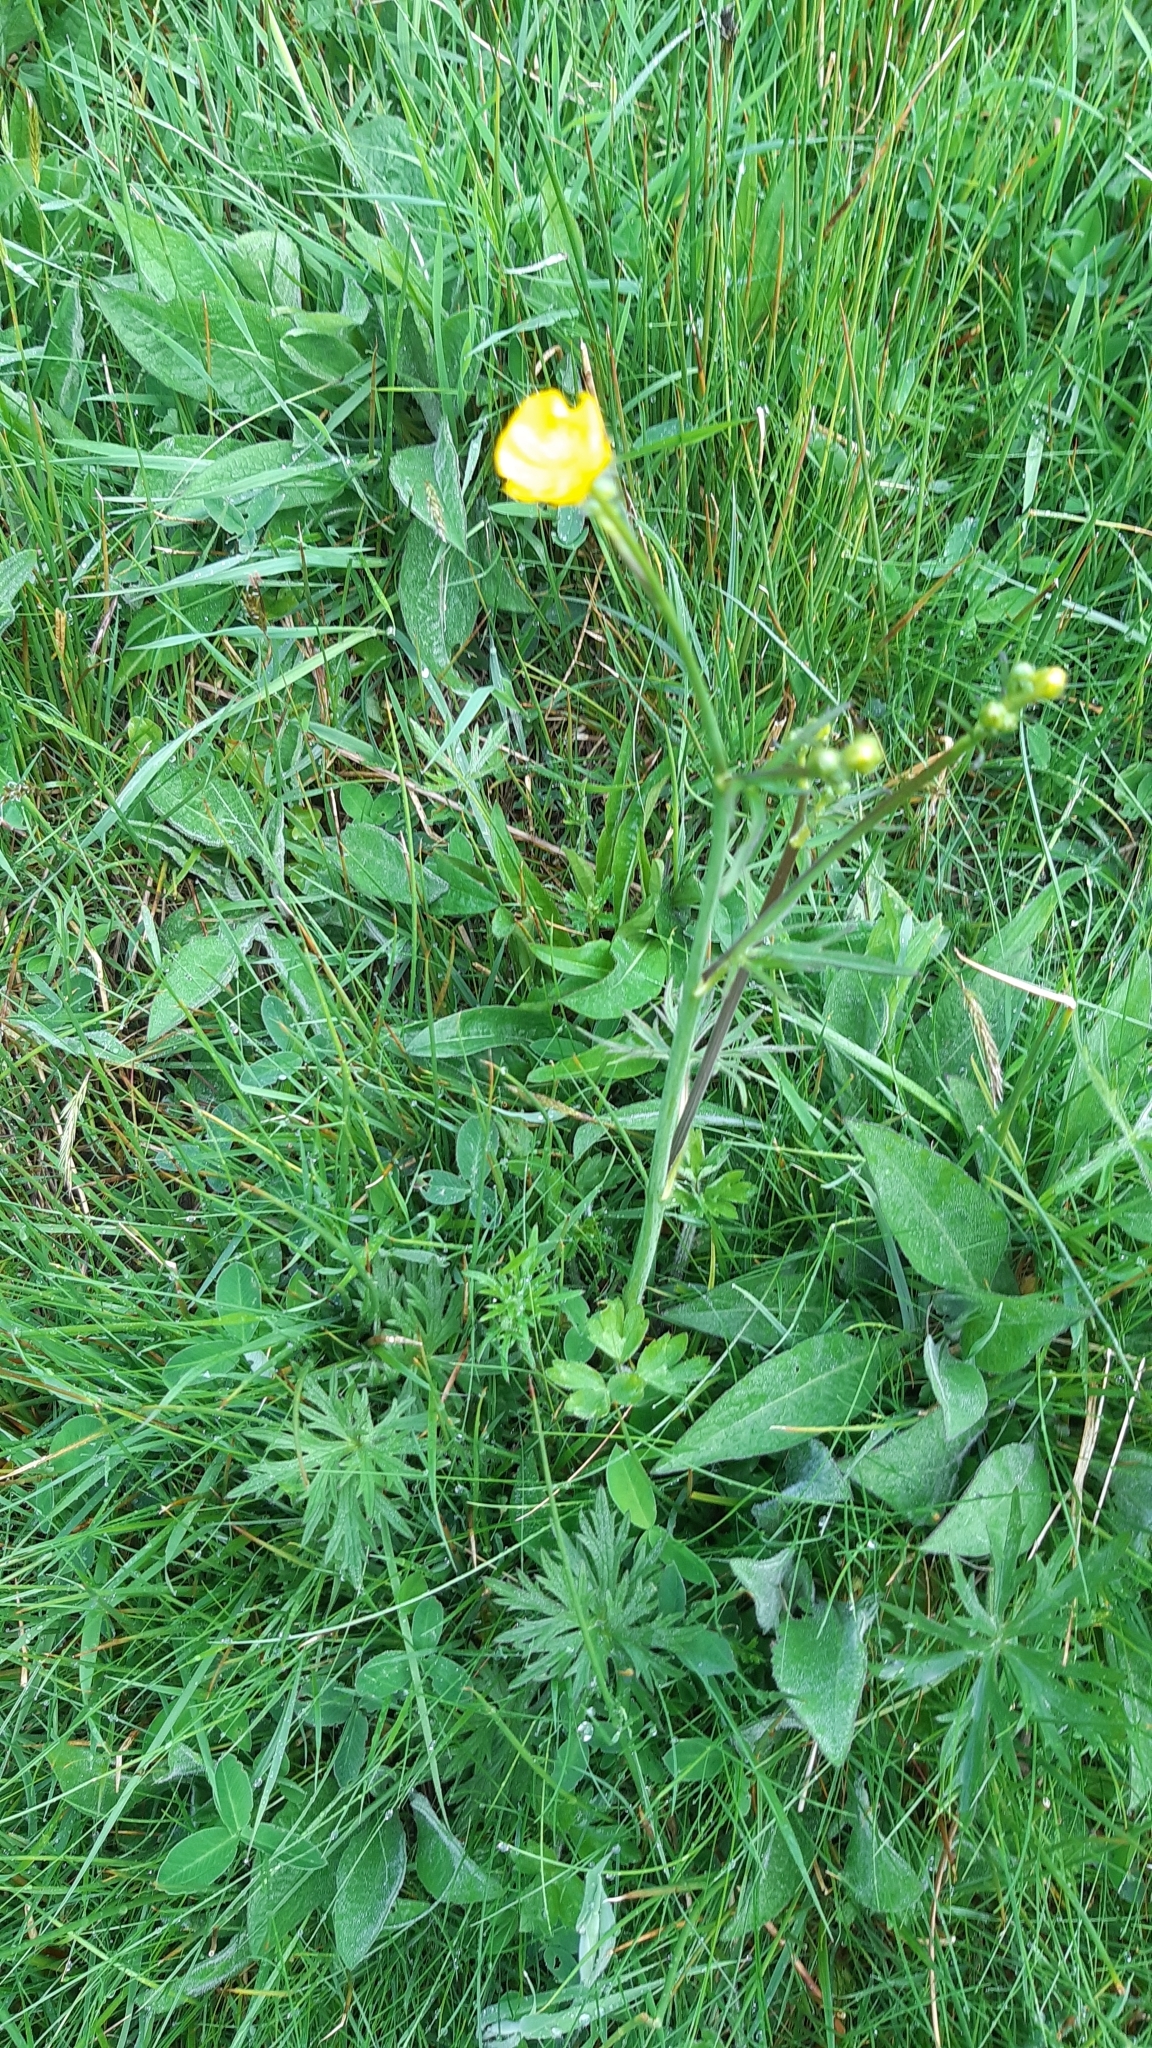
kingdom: Plantae
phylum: Tracheophyta
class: Magnoliopsida
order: Ranunculales
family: Ranunculaceae
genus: Ranunculus
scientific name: Ranunculus acris
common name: Meadow buttercup
